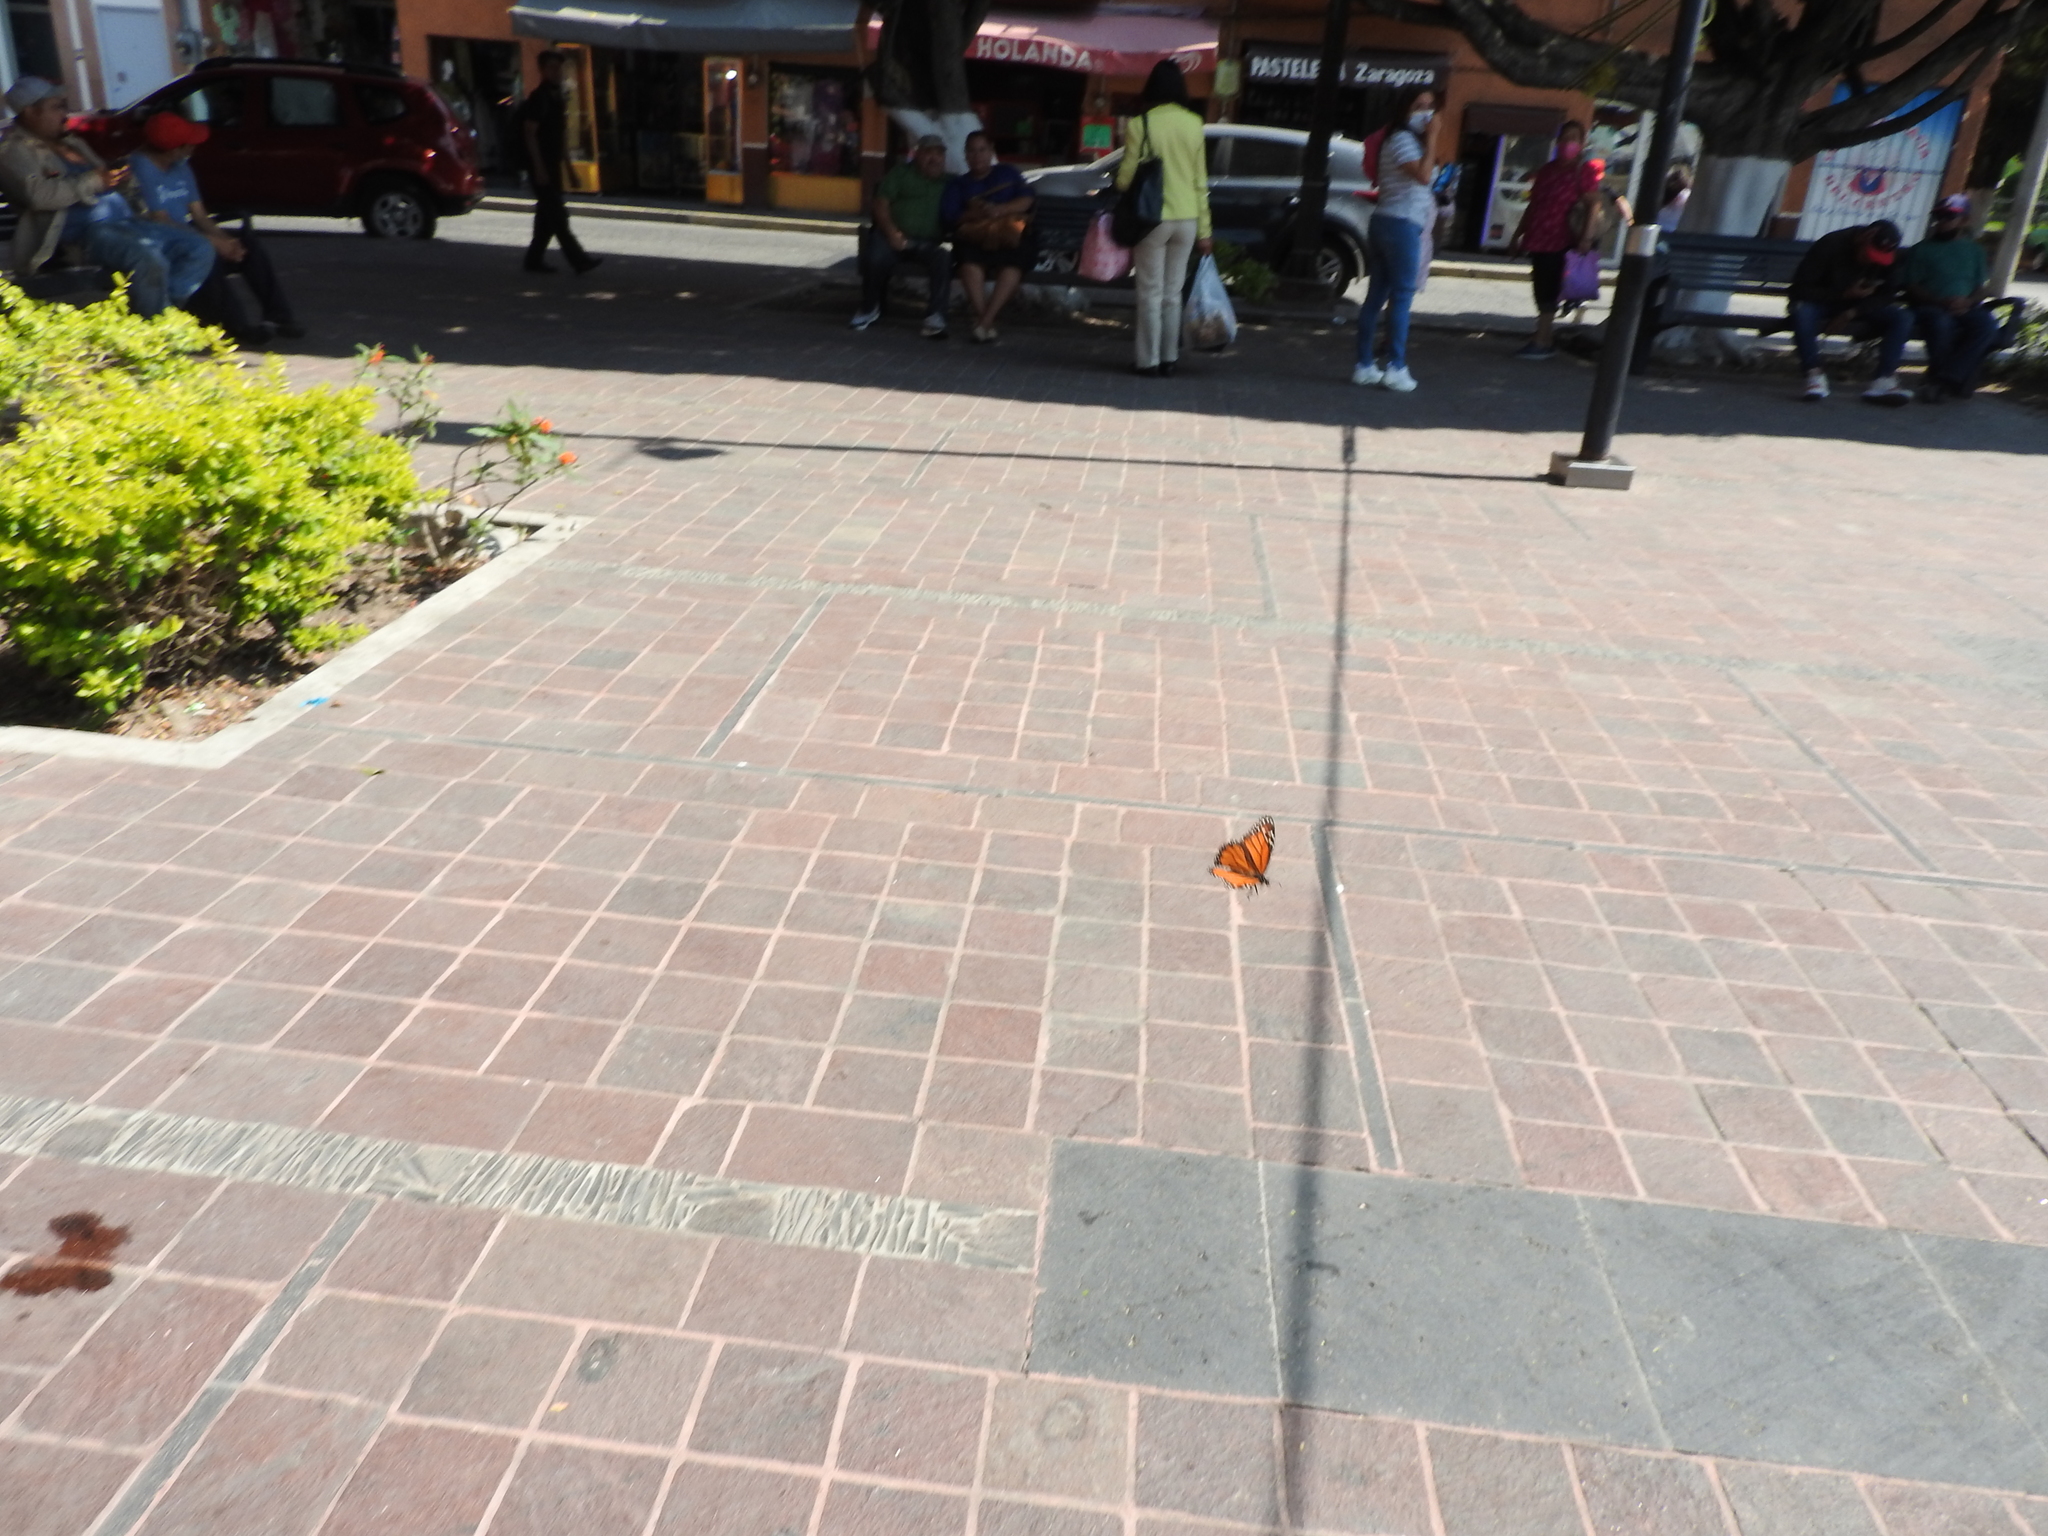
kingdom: Animalia
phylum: Arthropoda
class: Insecta
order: Lepidoptera
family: Nymphalidae
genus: Danaus
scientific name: Danaus plexippus
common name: Monarch
